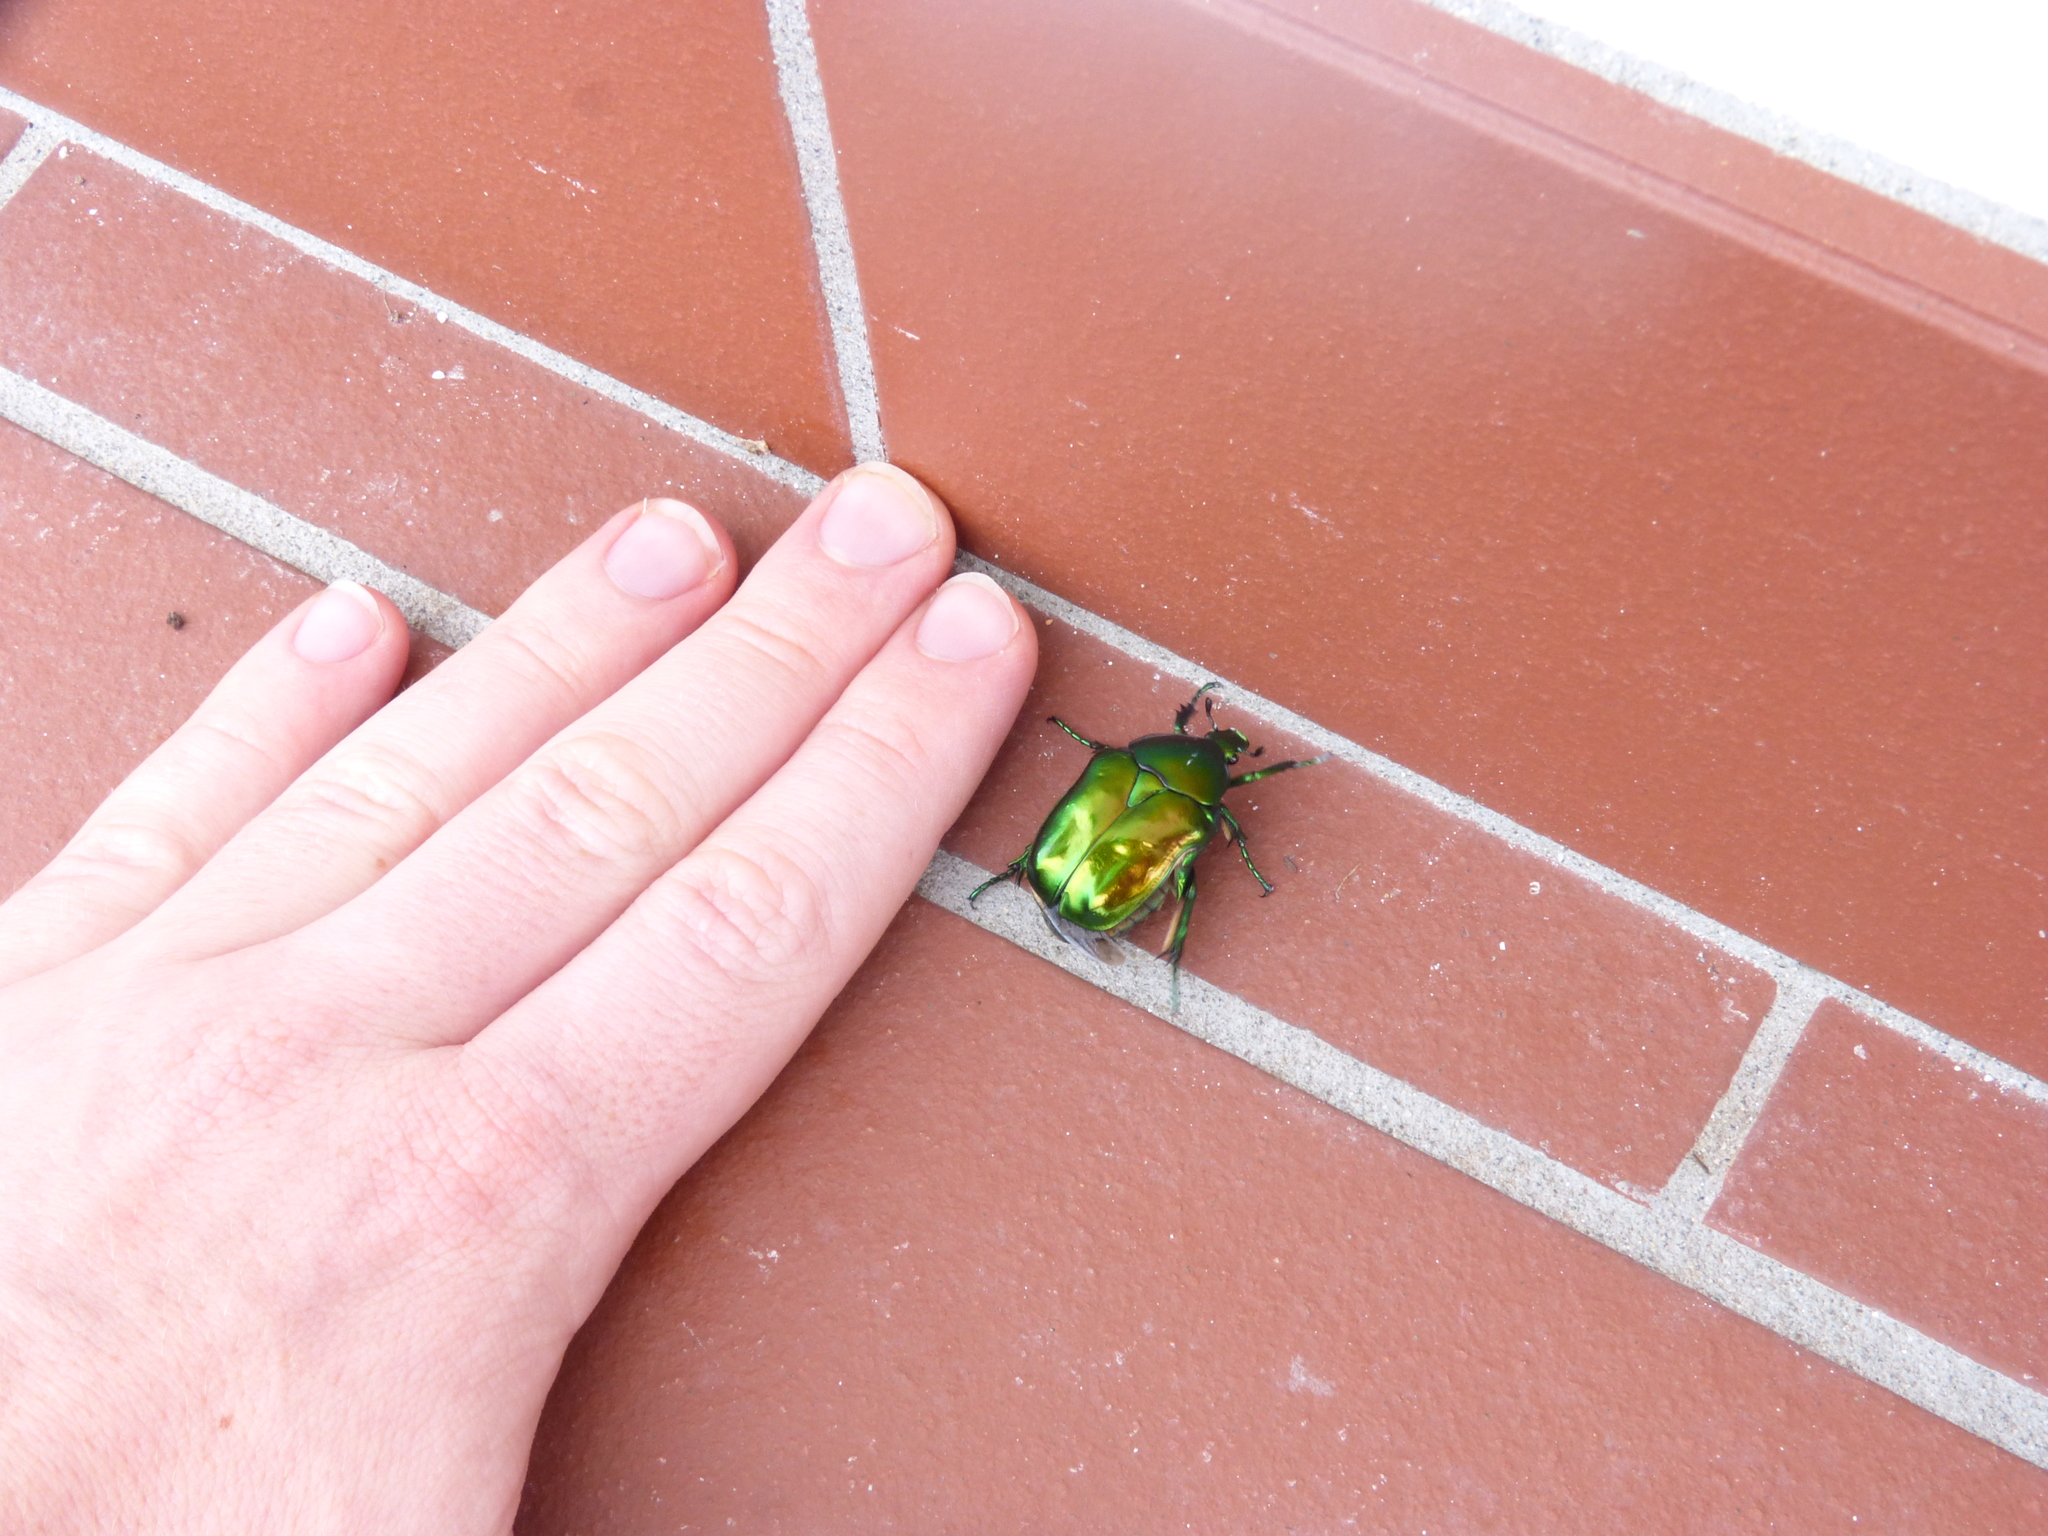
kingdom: Animalia
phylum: Arthropoda
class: Insecta
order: Coleoptera
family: Scarabaeidae
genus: Protaetia
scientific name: Protaetia speciosissima
